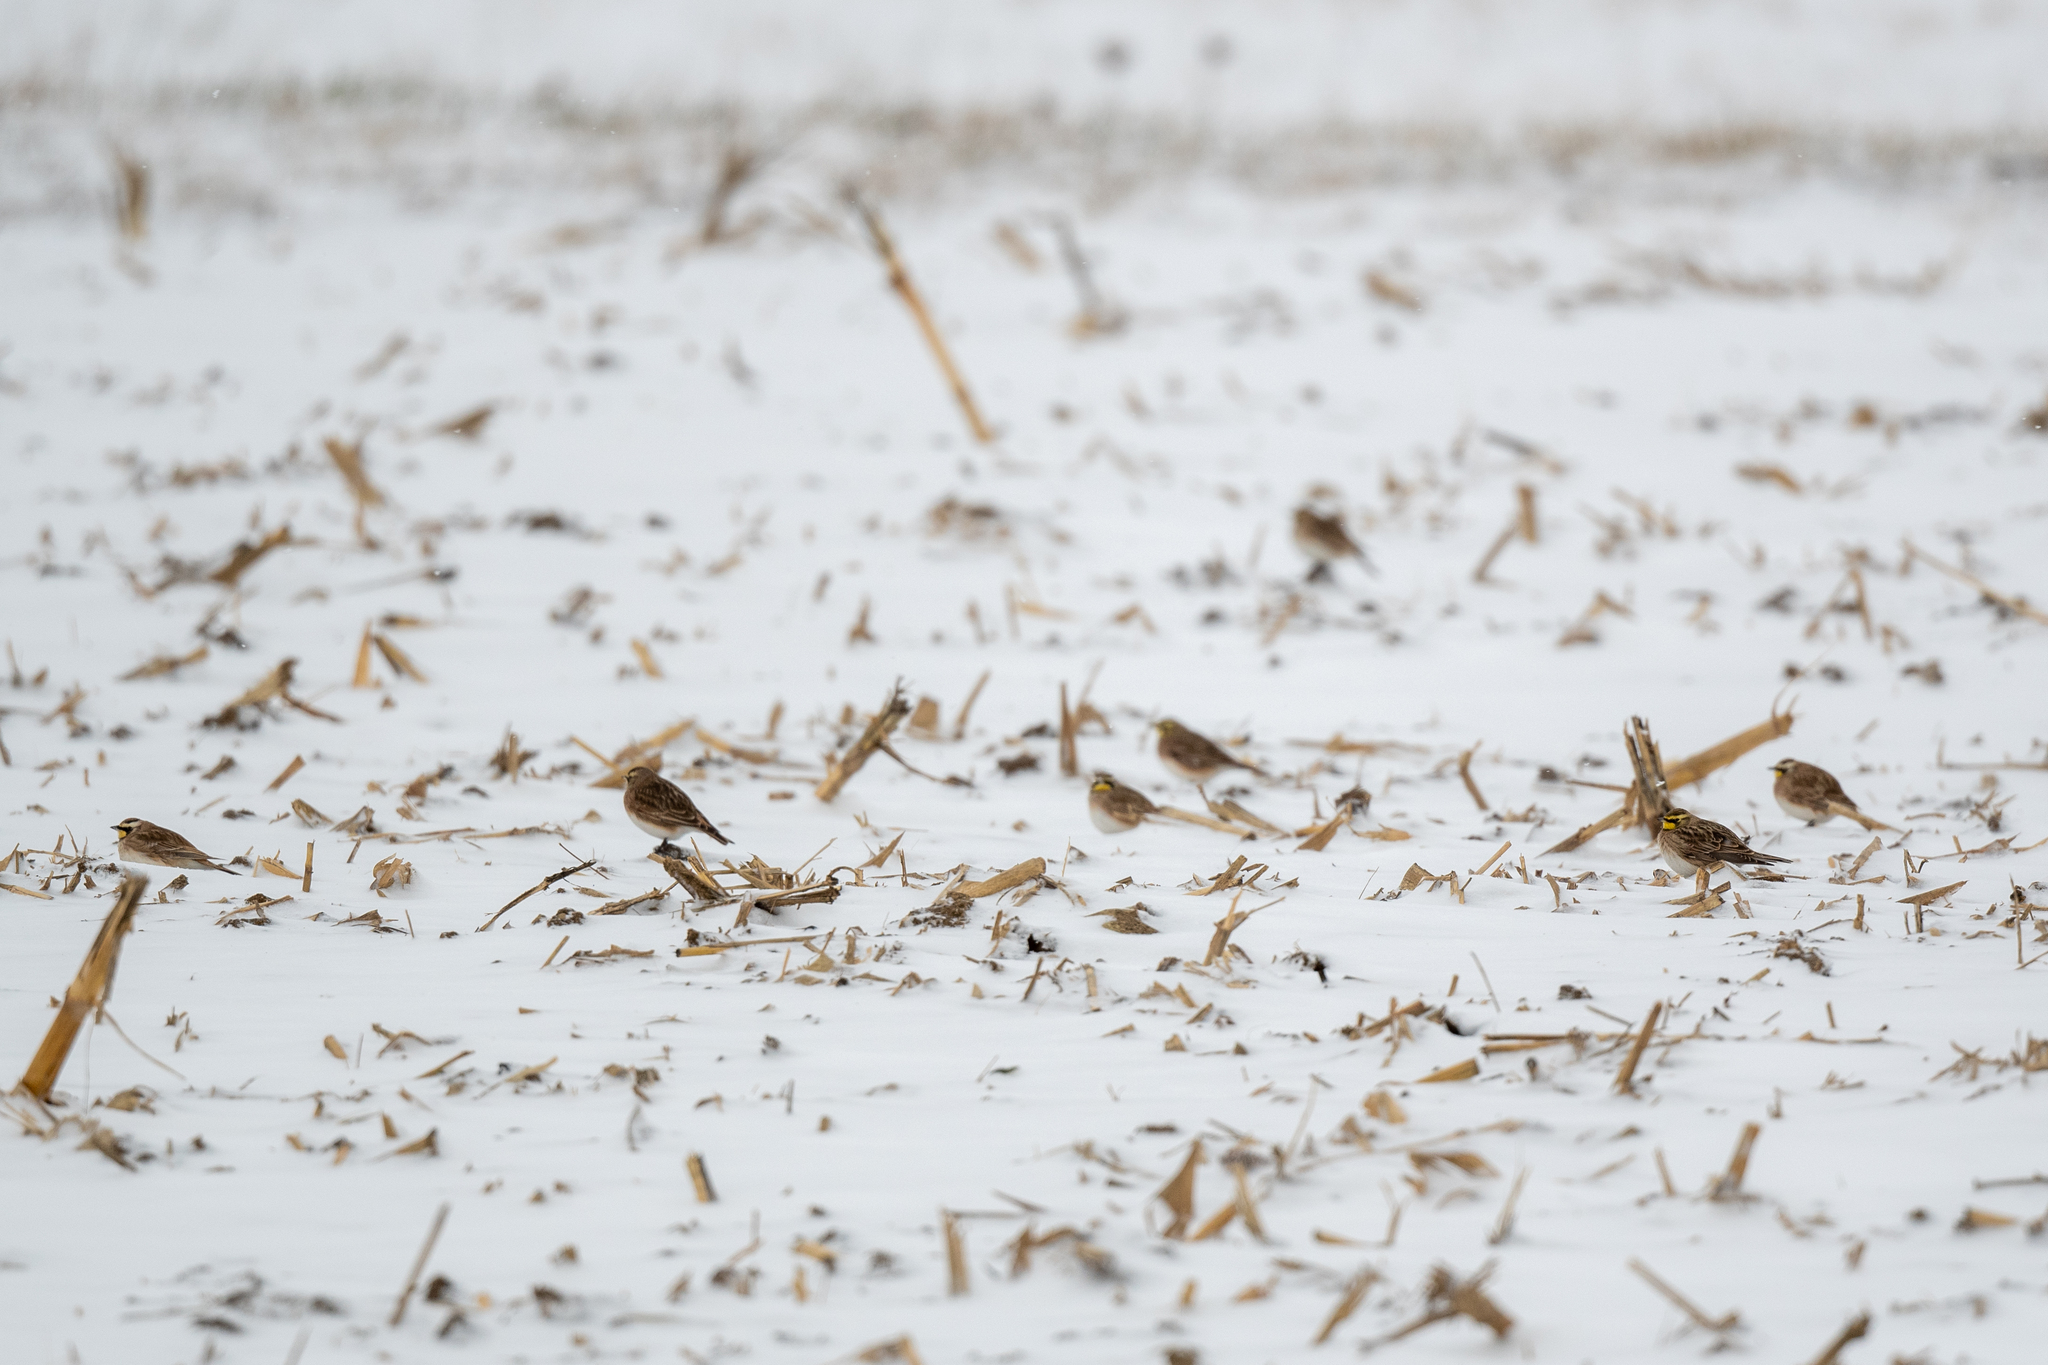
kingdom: Animalia
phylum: Chordata
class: Aves
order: Passeriformes
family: Alaudidae
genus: Eremophila
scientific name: Eremophila alpestris
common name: Horned lark
